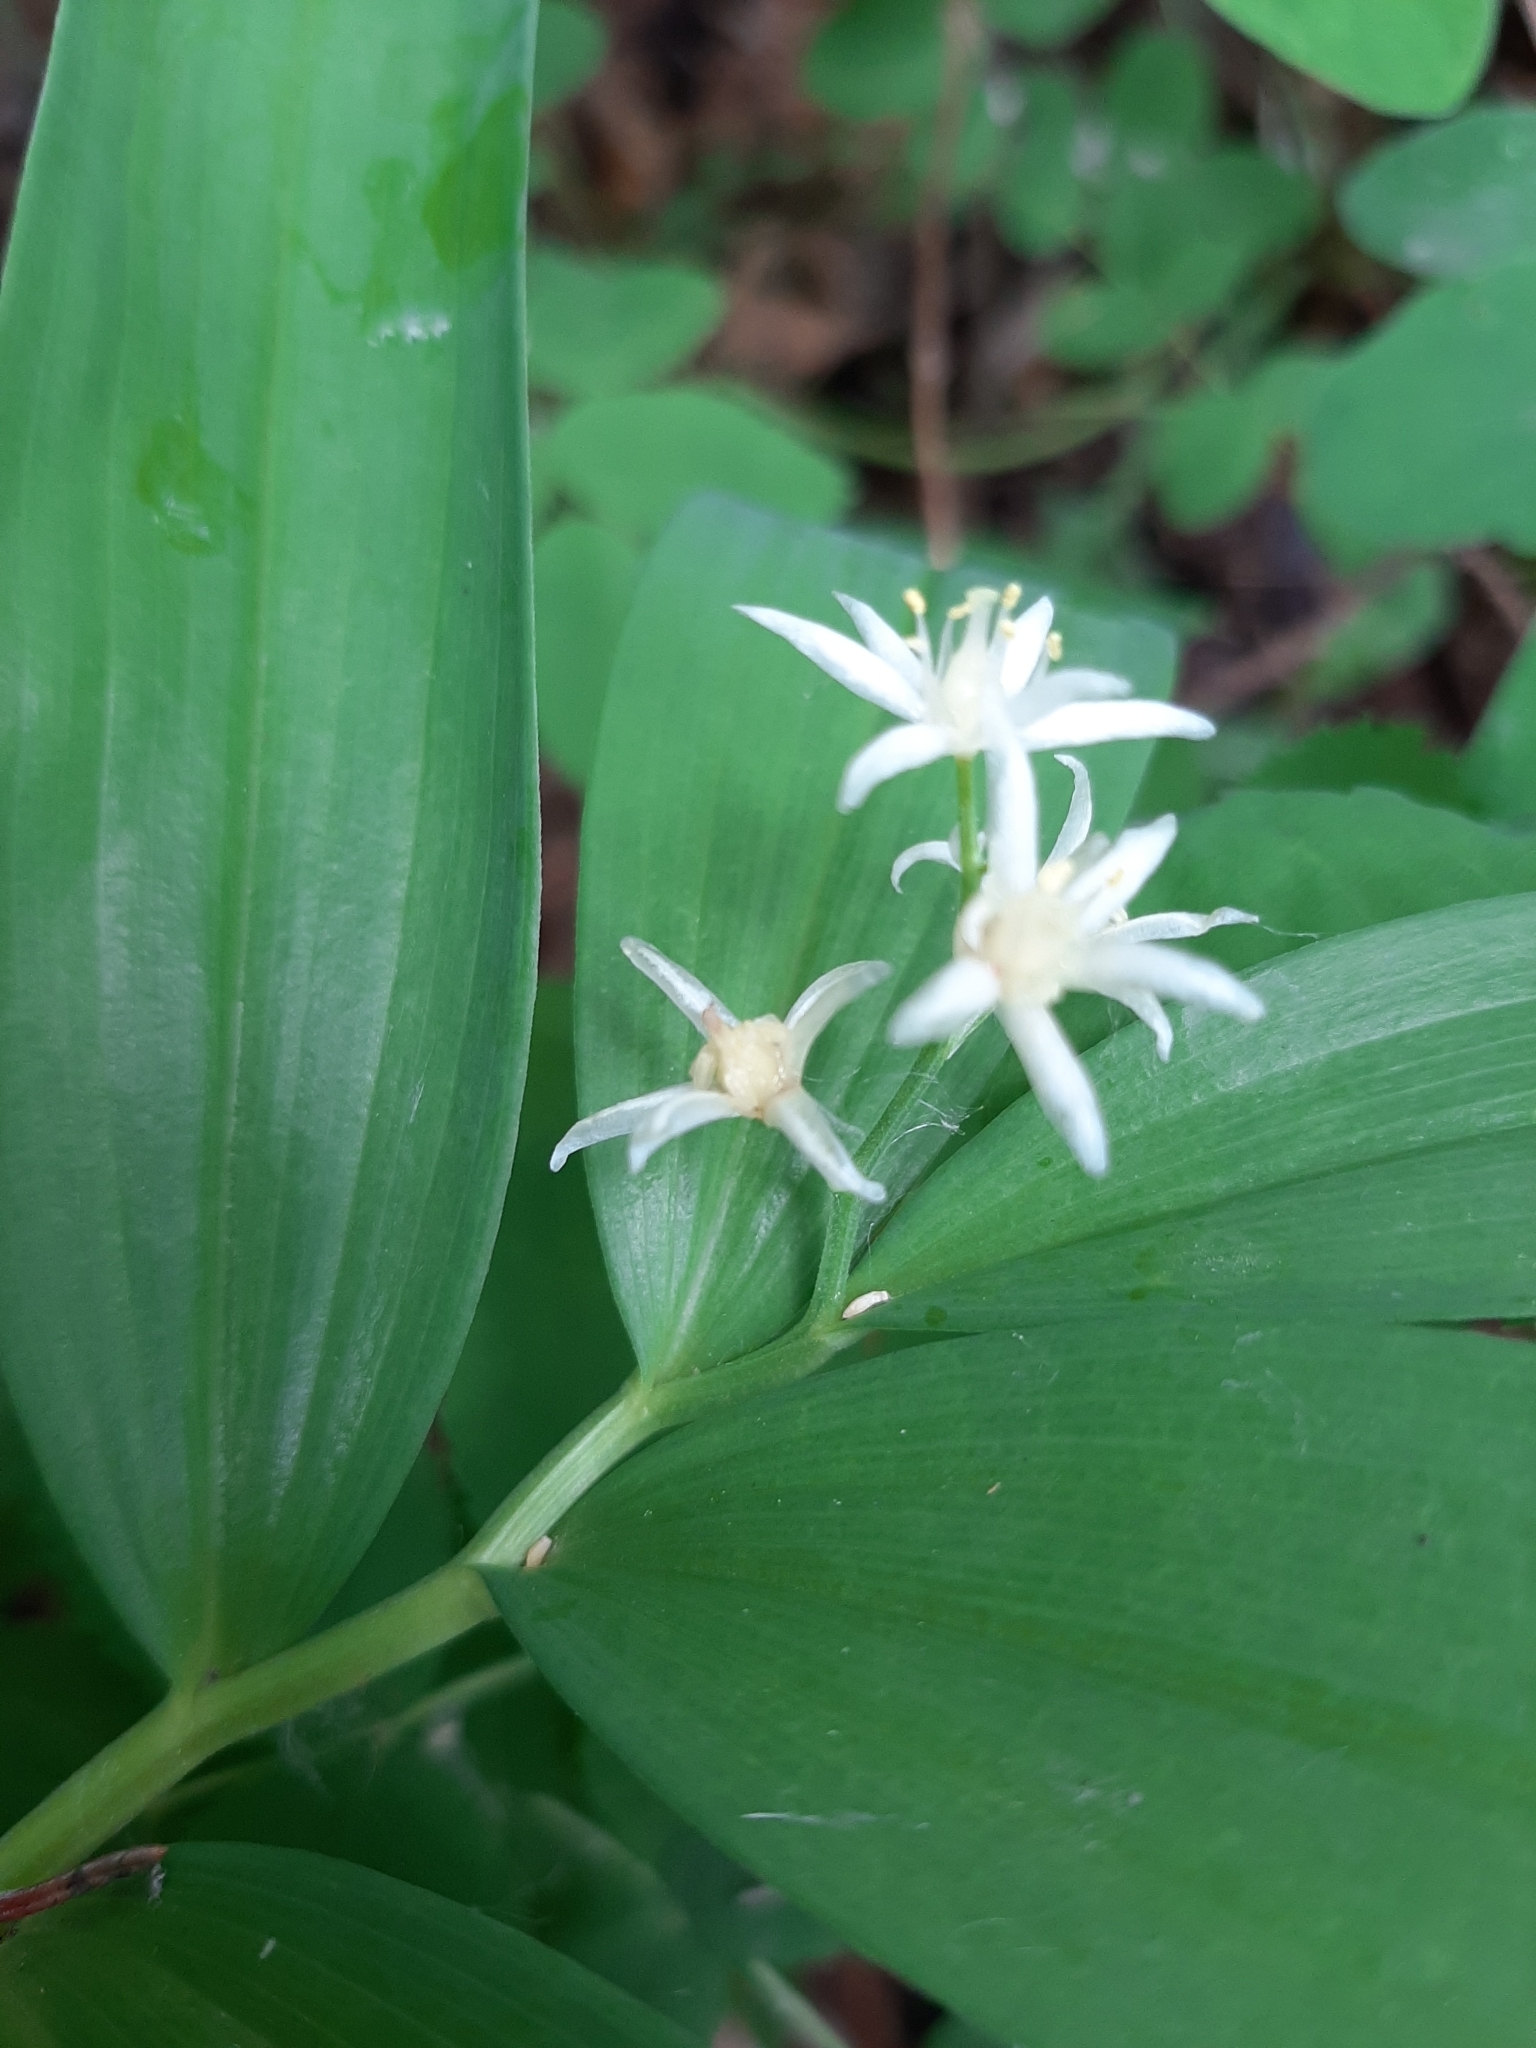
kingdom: Plantae
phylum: Tracheophyta
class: Liliopsida
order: Asparagales
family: Asparagaceae
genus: Maianthemum
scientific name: Maianthemum stellatum
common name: Little false solomon's seal
